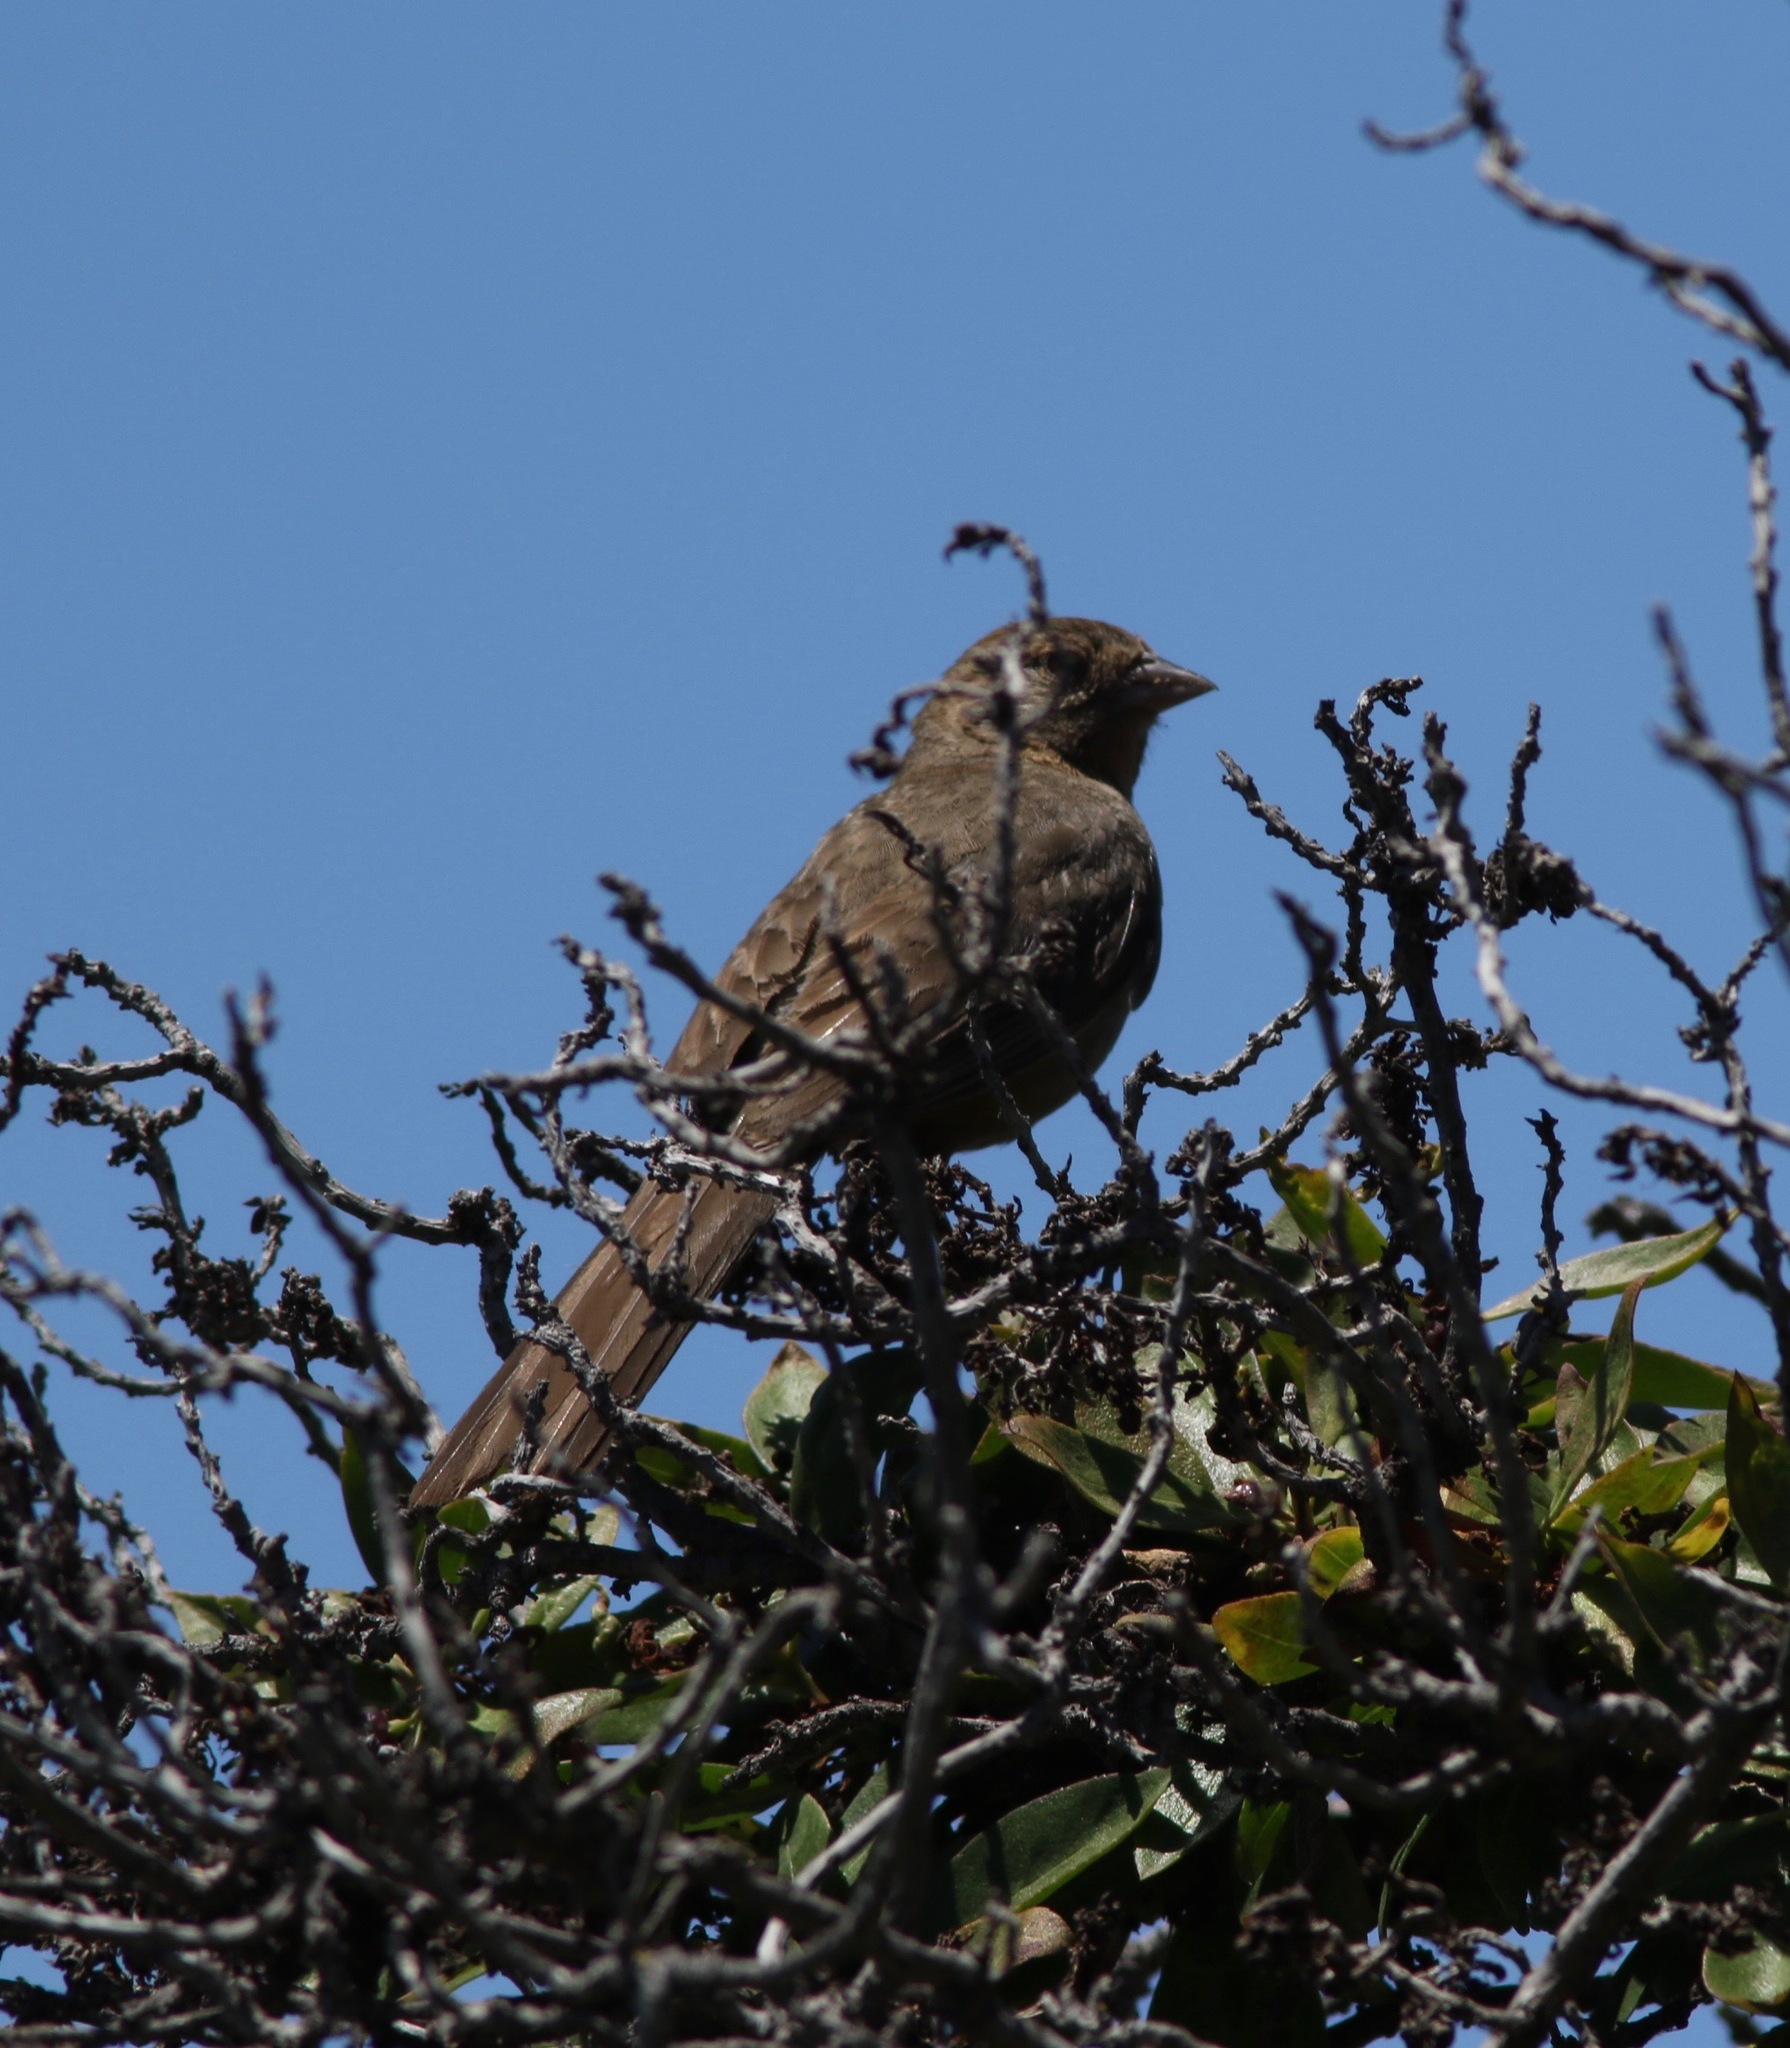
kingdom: Animalia
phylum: Chordata
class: Aves
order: Passeriformes
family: Passerellidae
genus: Melozone
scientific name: Melozone crissalis
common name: California towhee
